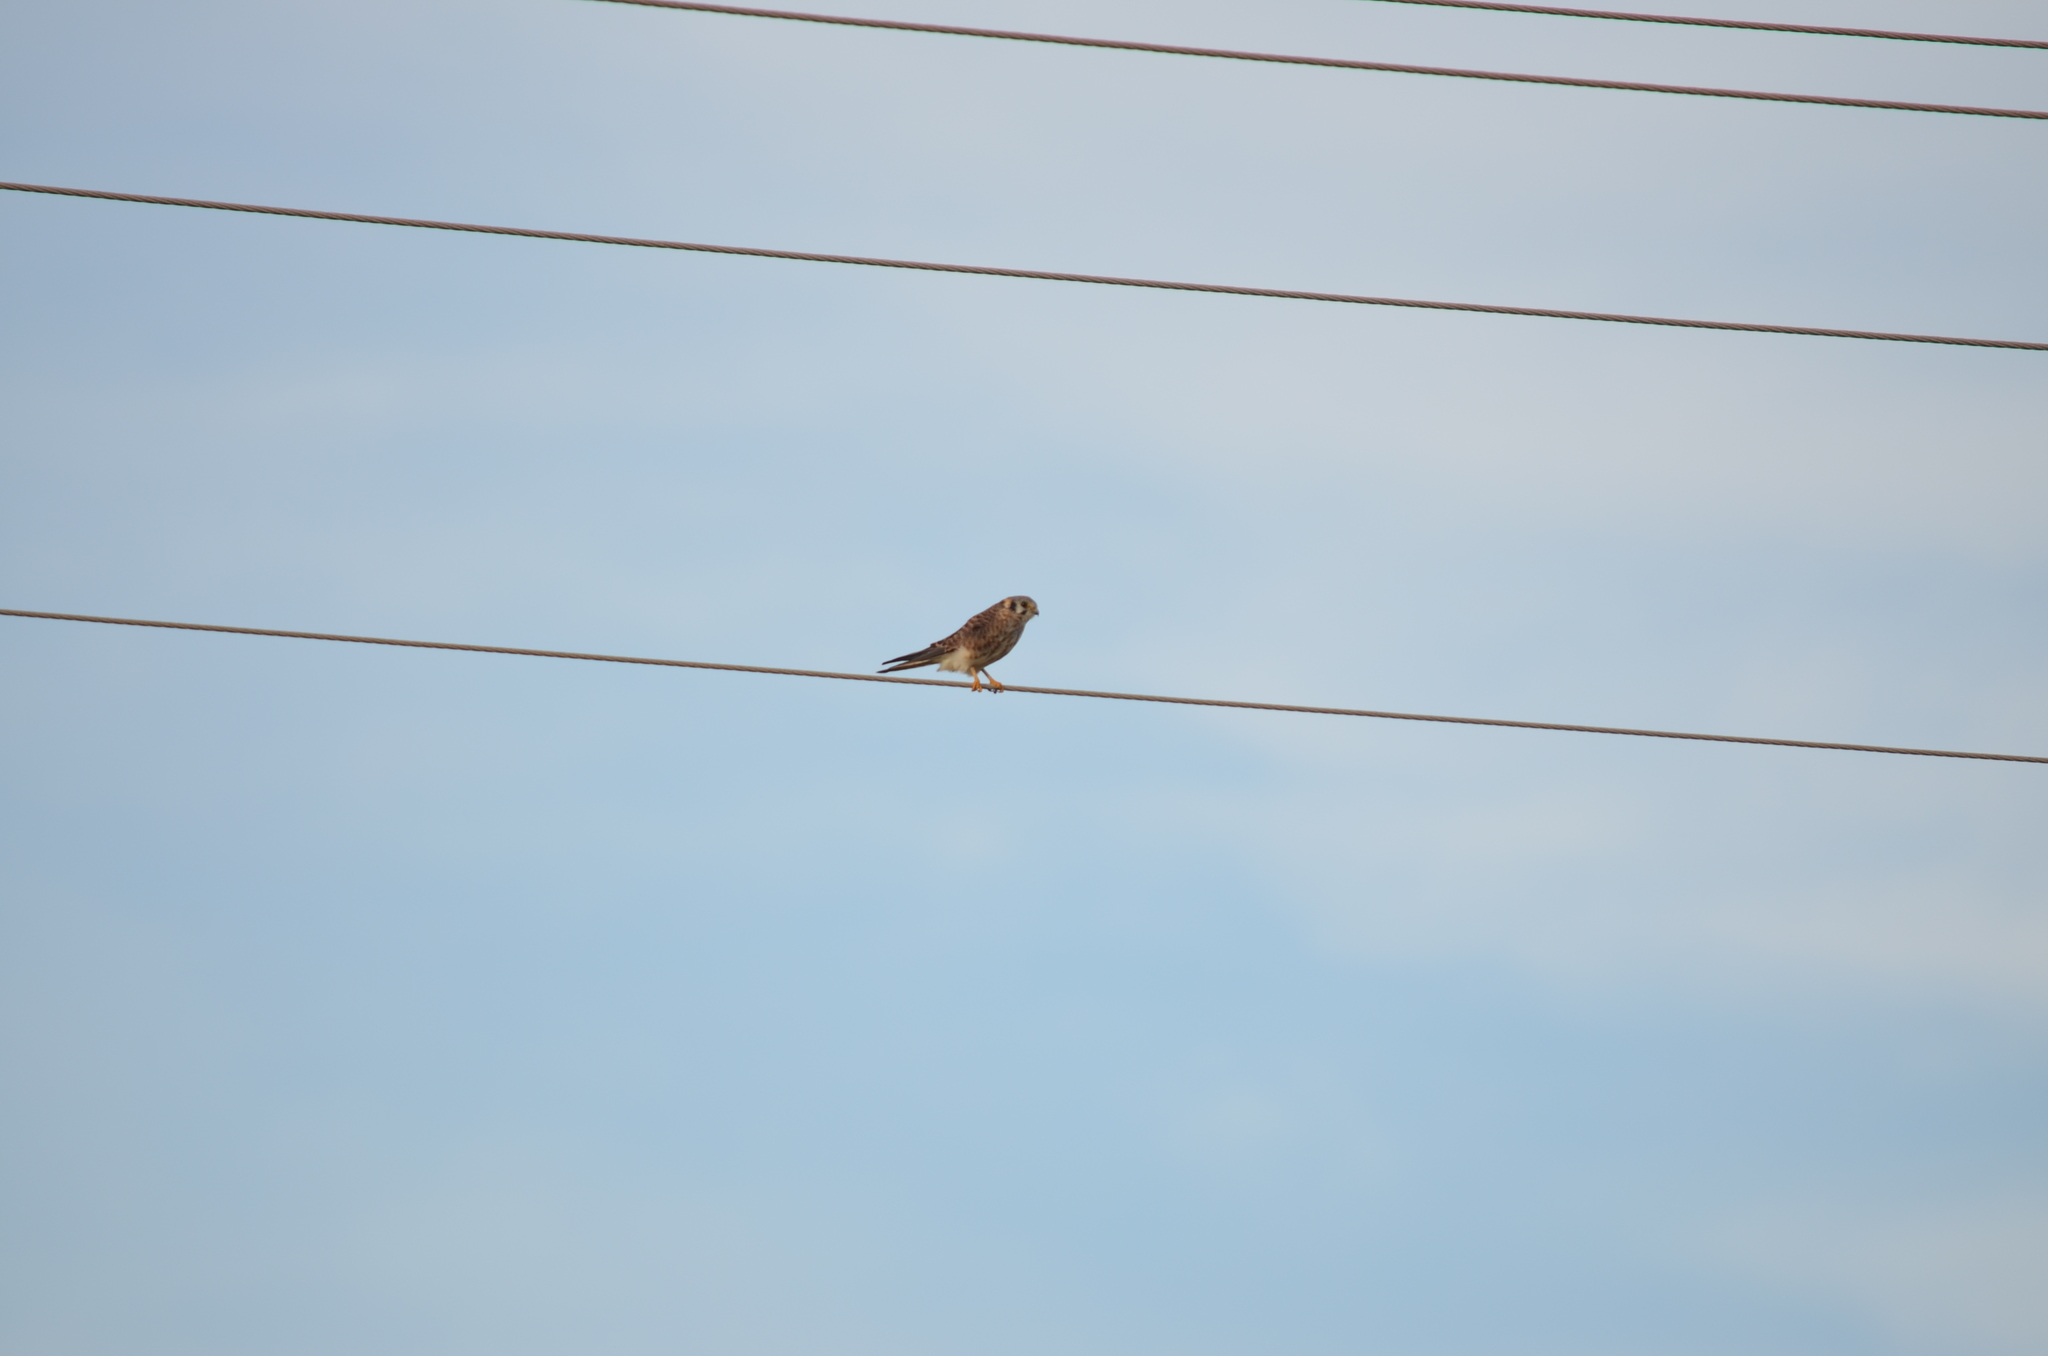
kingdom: Animalia
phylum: Chordata
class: Aves
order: Falconiformes
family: Falconidae
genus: Falco
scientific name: Falco sparverius
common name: American kestrel
